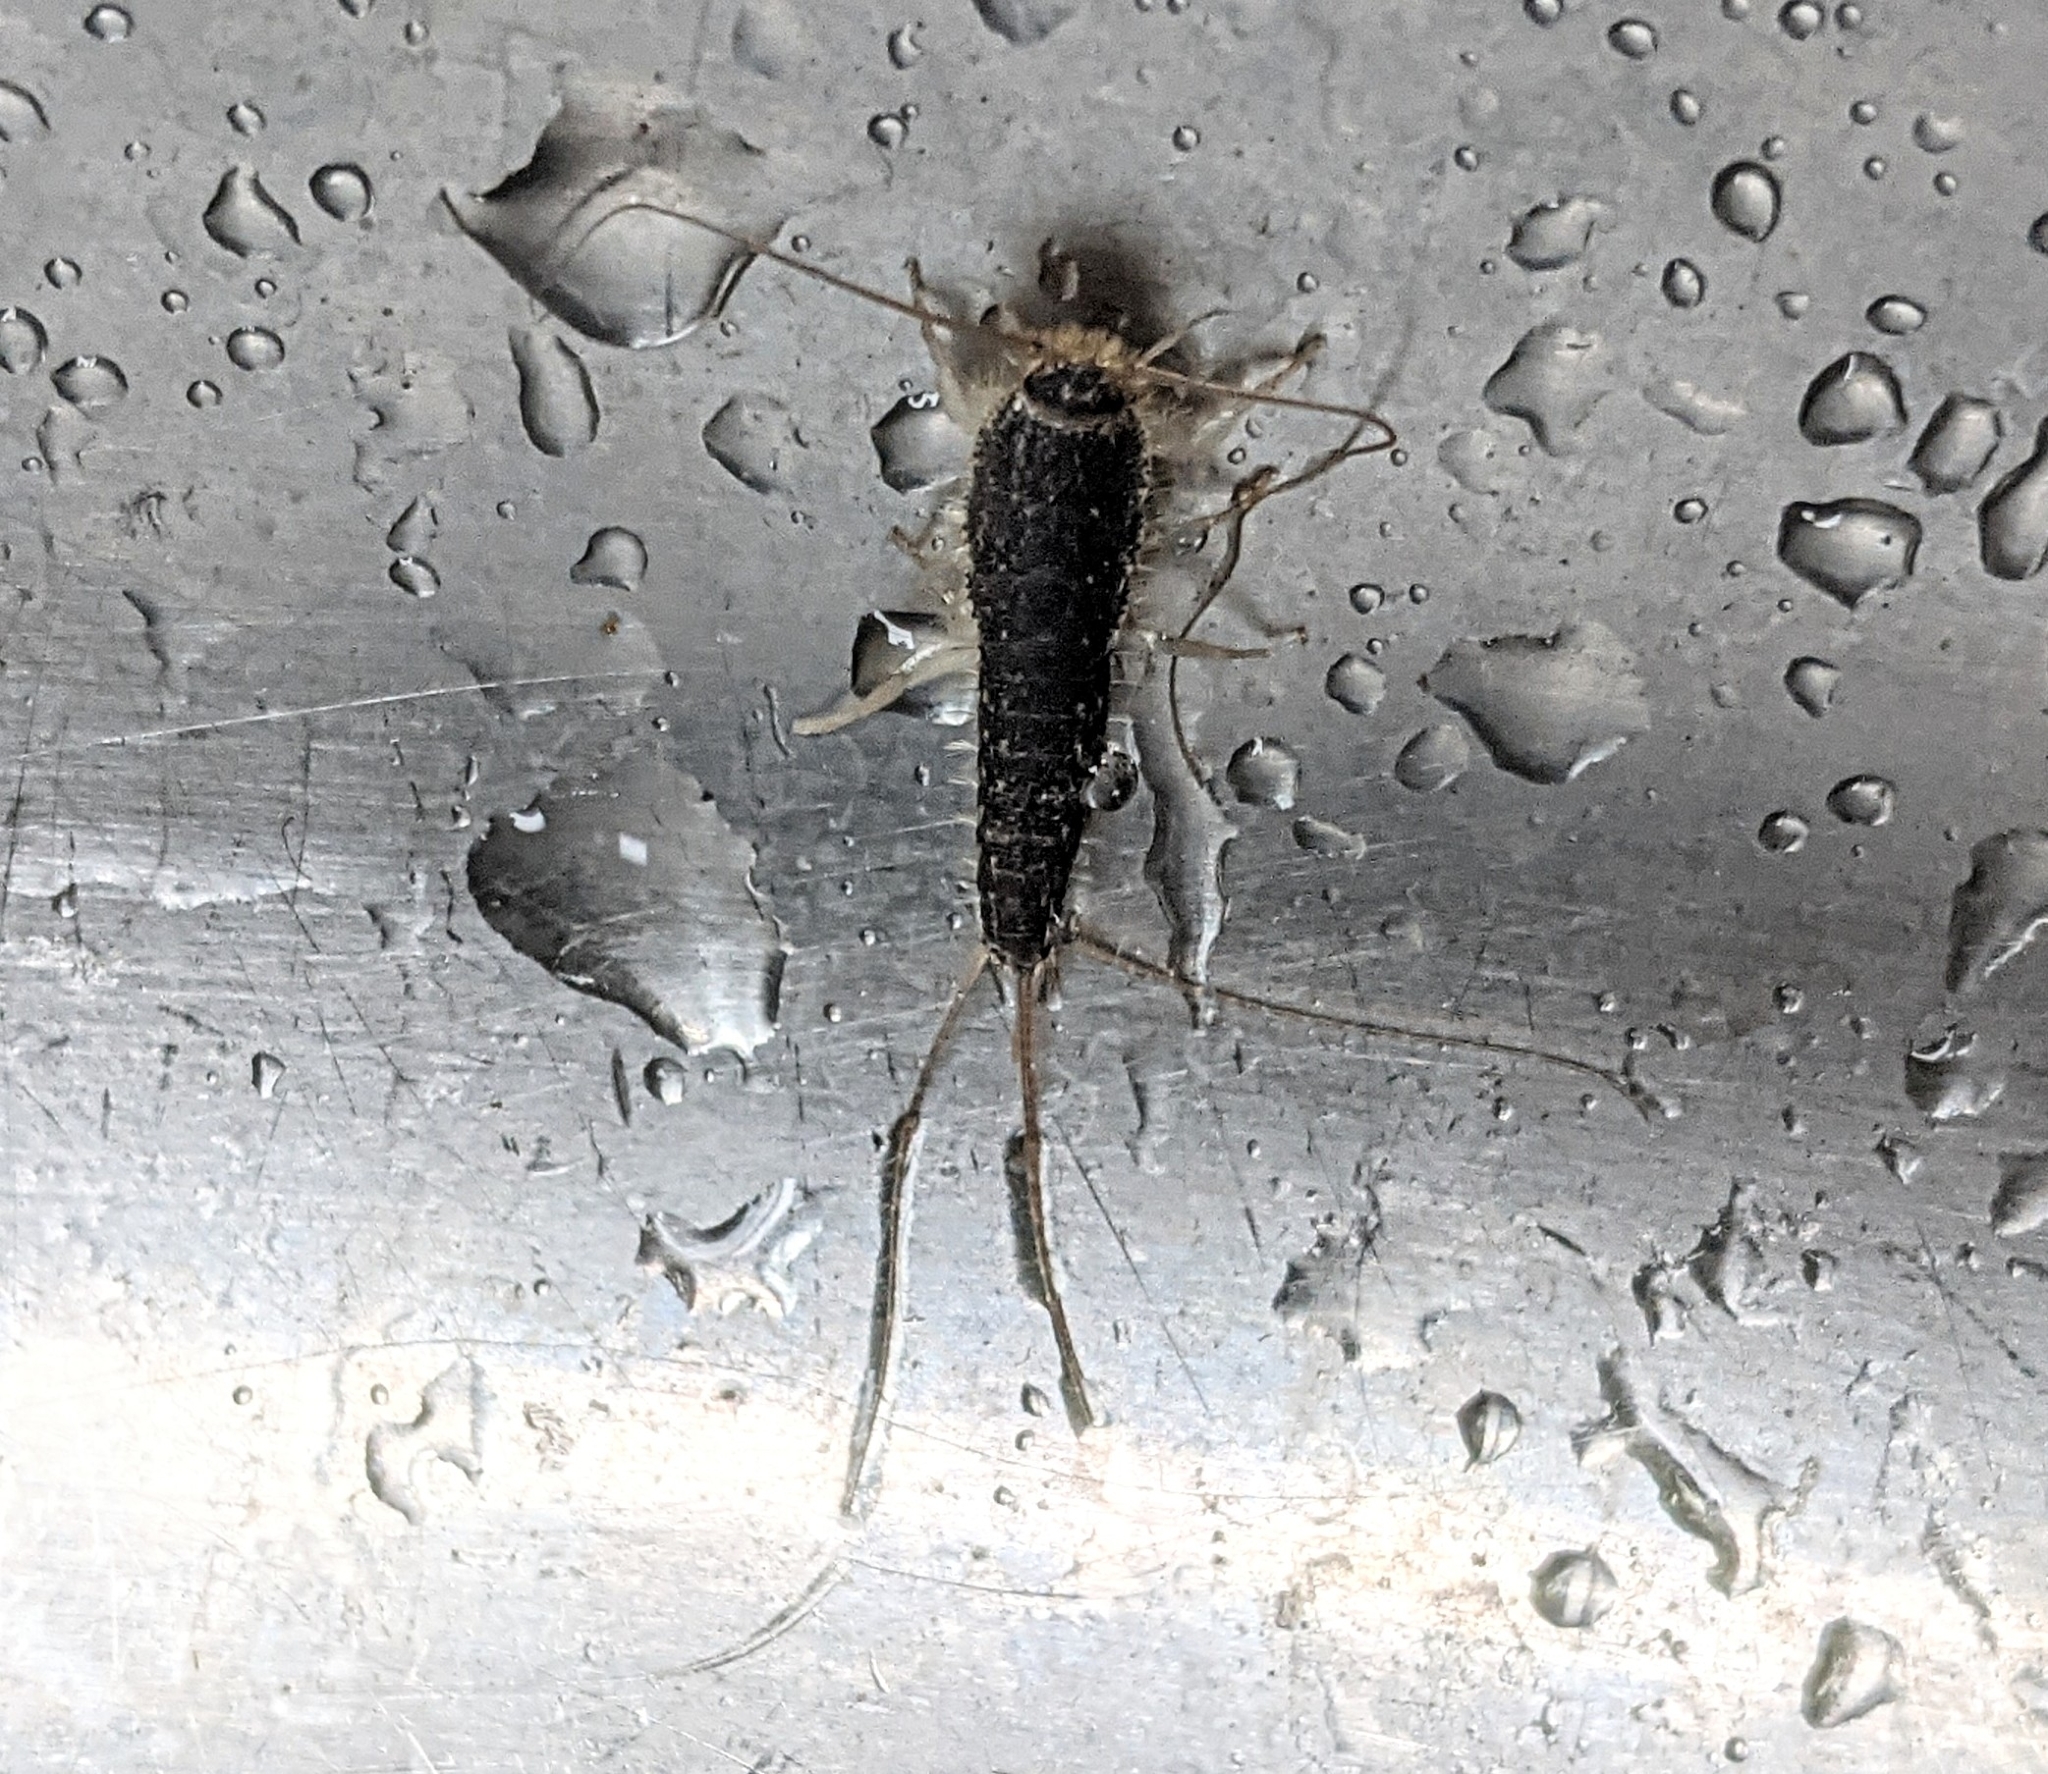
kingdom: Animalia
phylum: Arthropoda
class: Insecta
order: Zygentoma
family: Lepismatidae
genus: Ctenolepisma
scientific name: Ctenolepisma longicaudatum
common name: Silverfish
